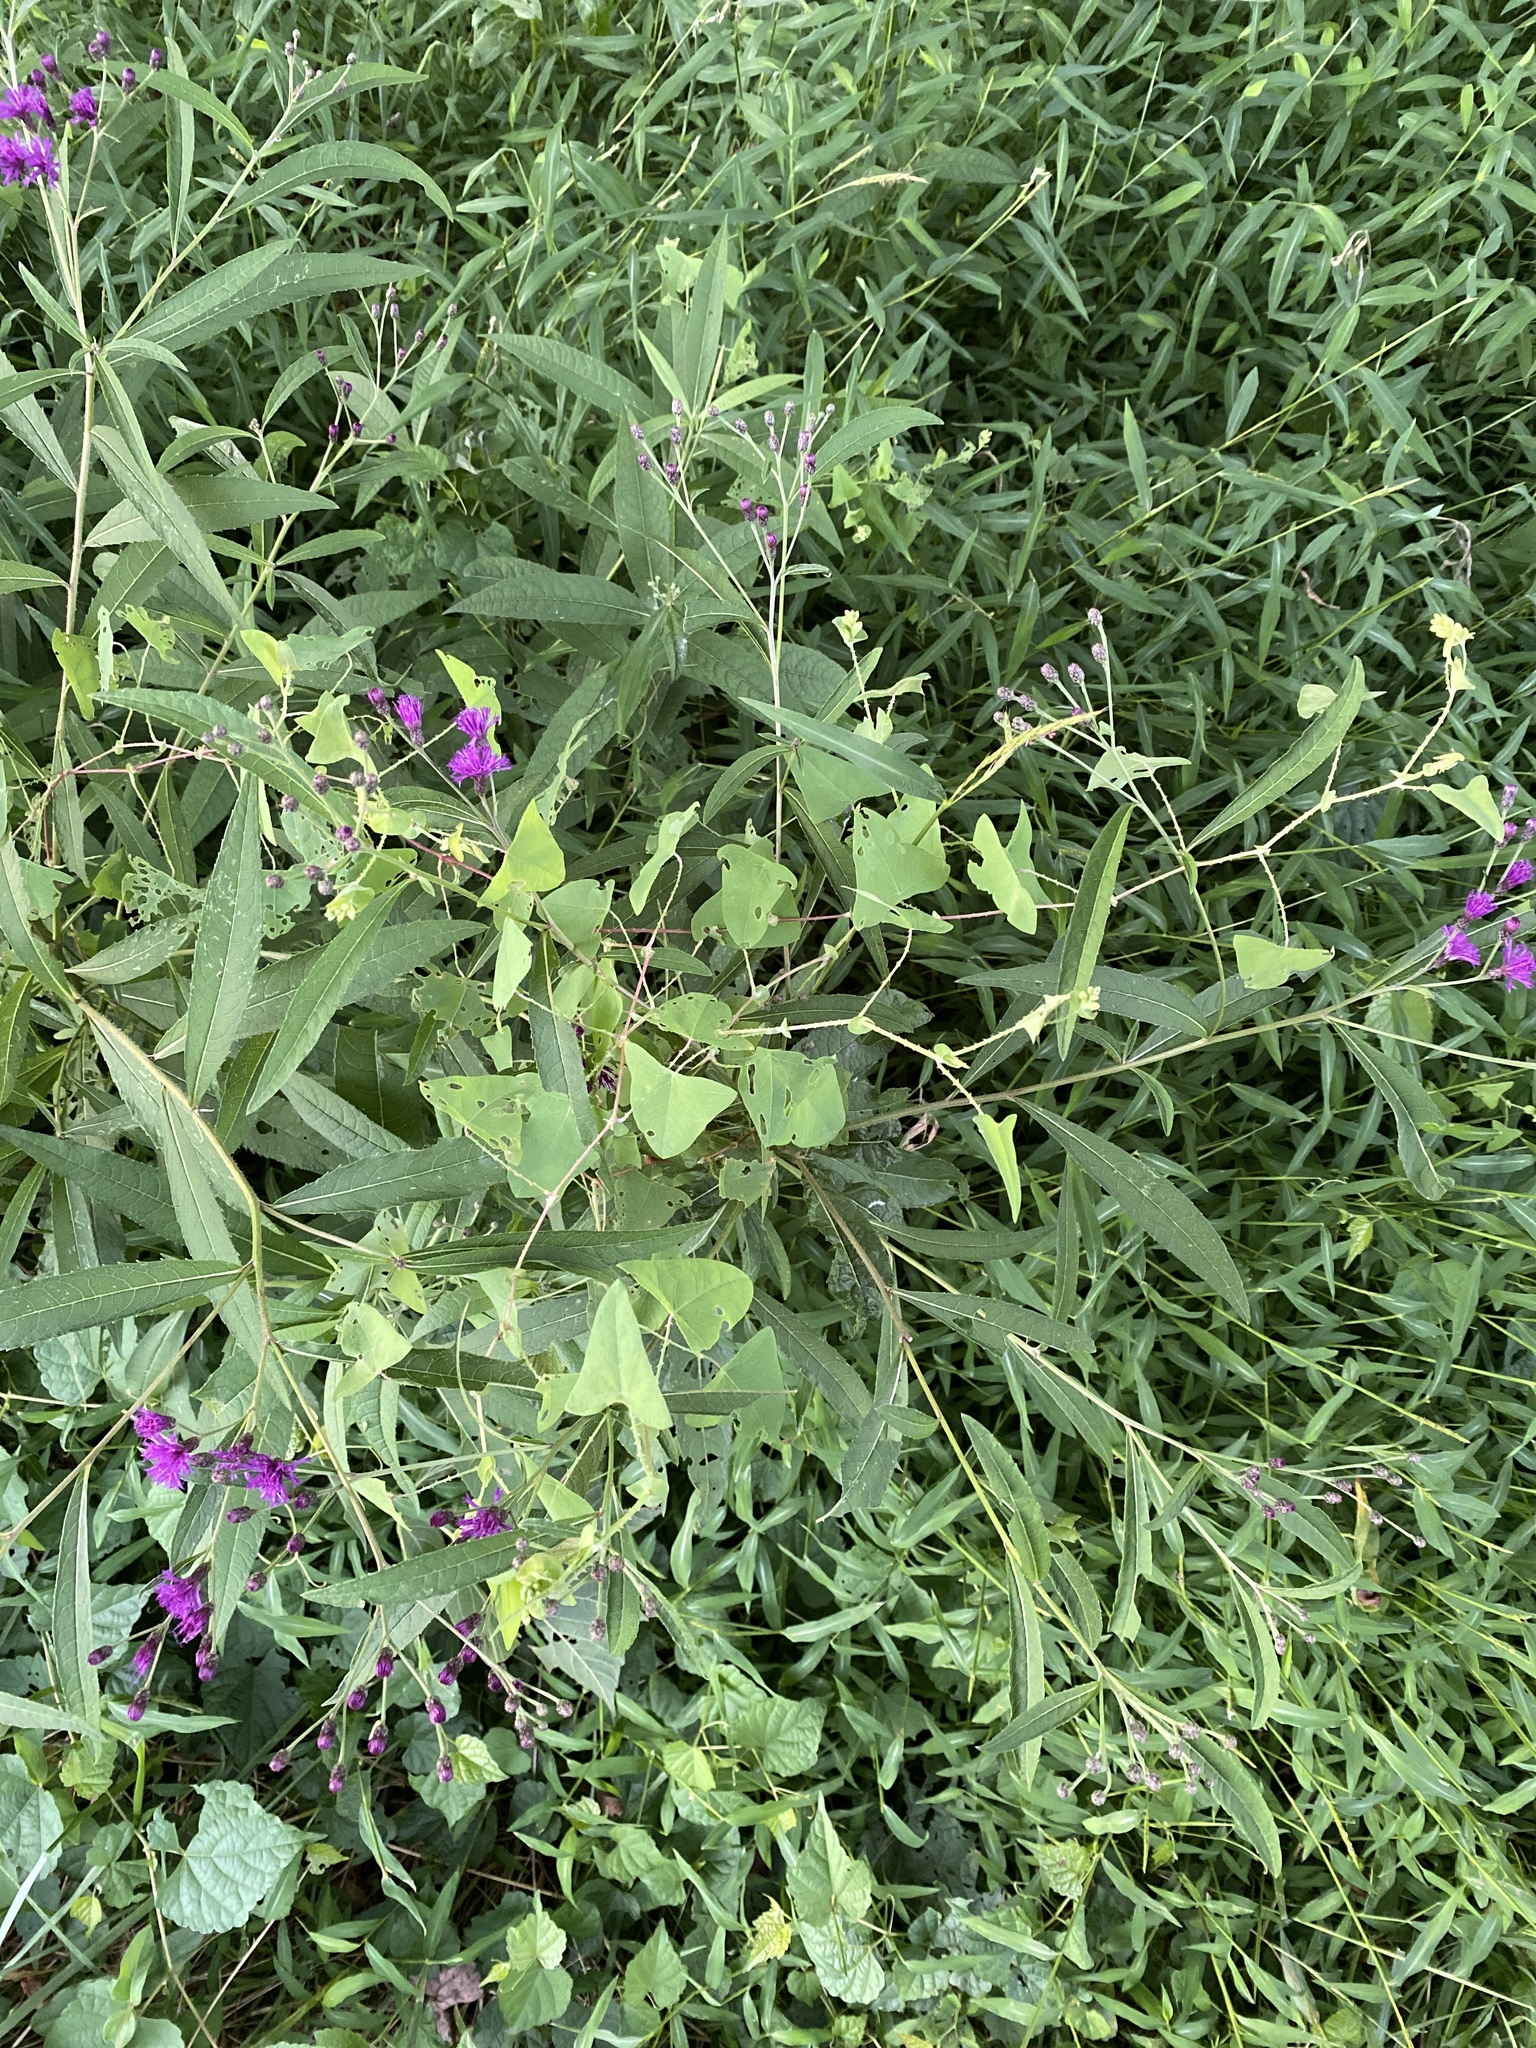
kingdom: Plantae
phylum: Tracheophyta
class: Magnoliopsida
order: Caryophyllales
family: Polygonaceae
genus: Persicaria
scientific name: Persicaria perfoliata
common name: Asiatic tearthumb
